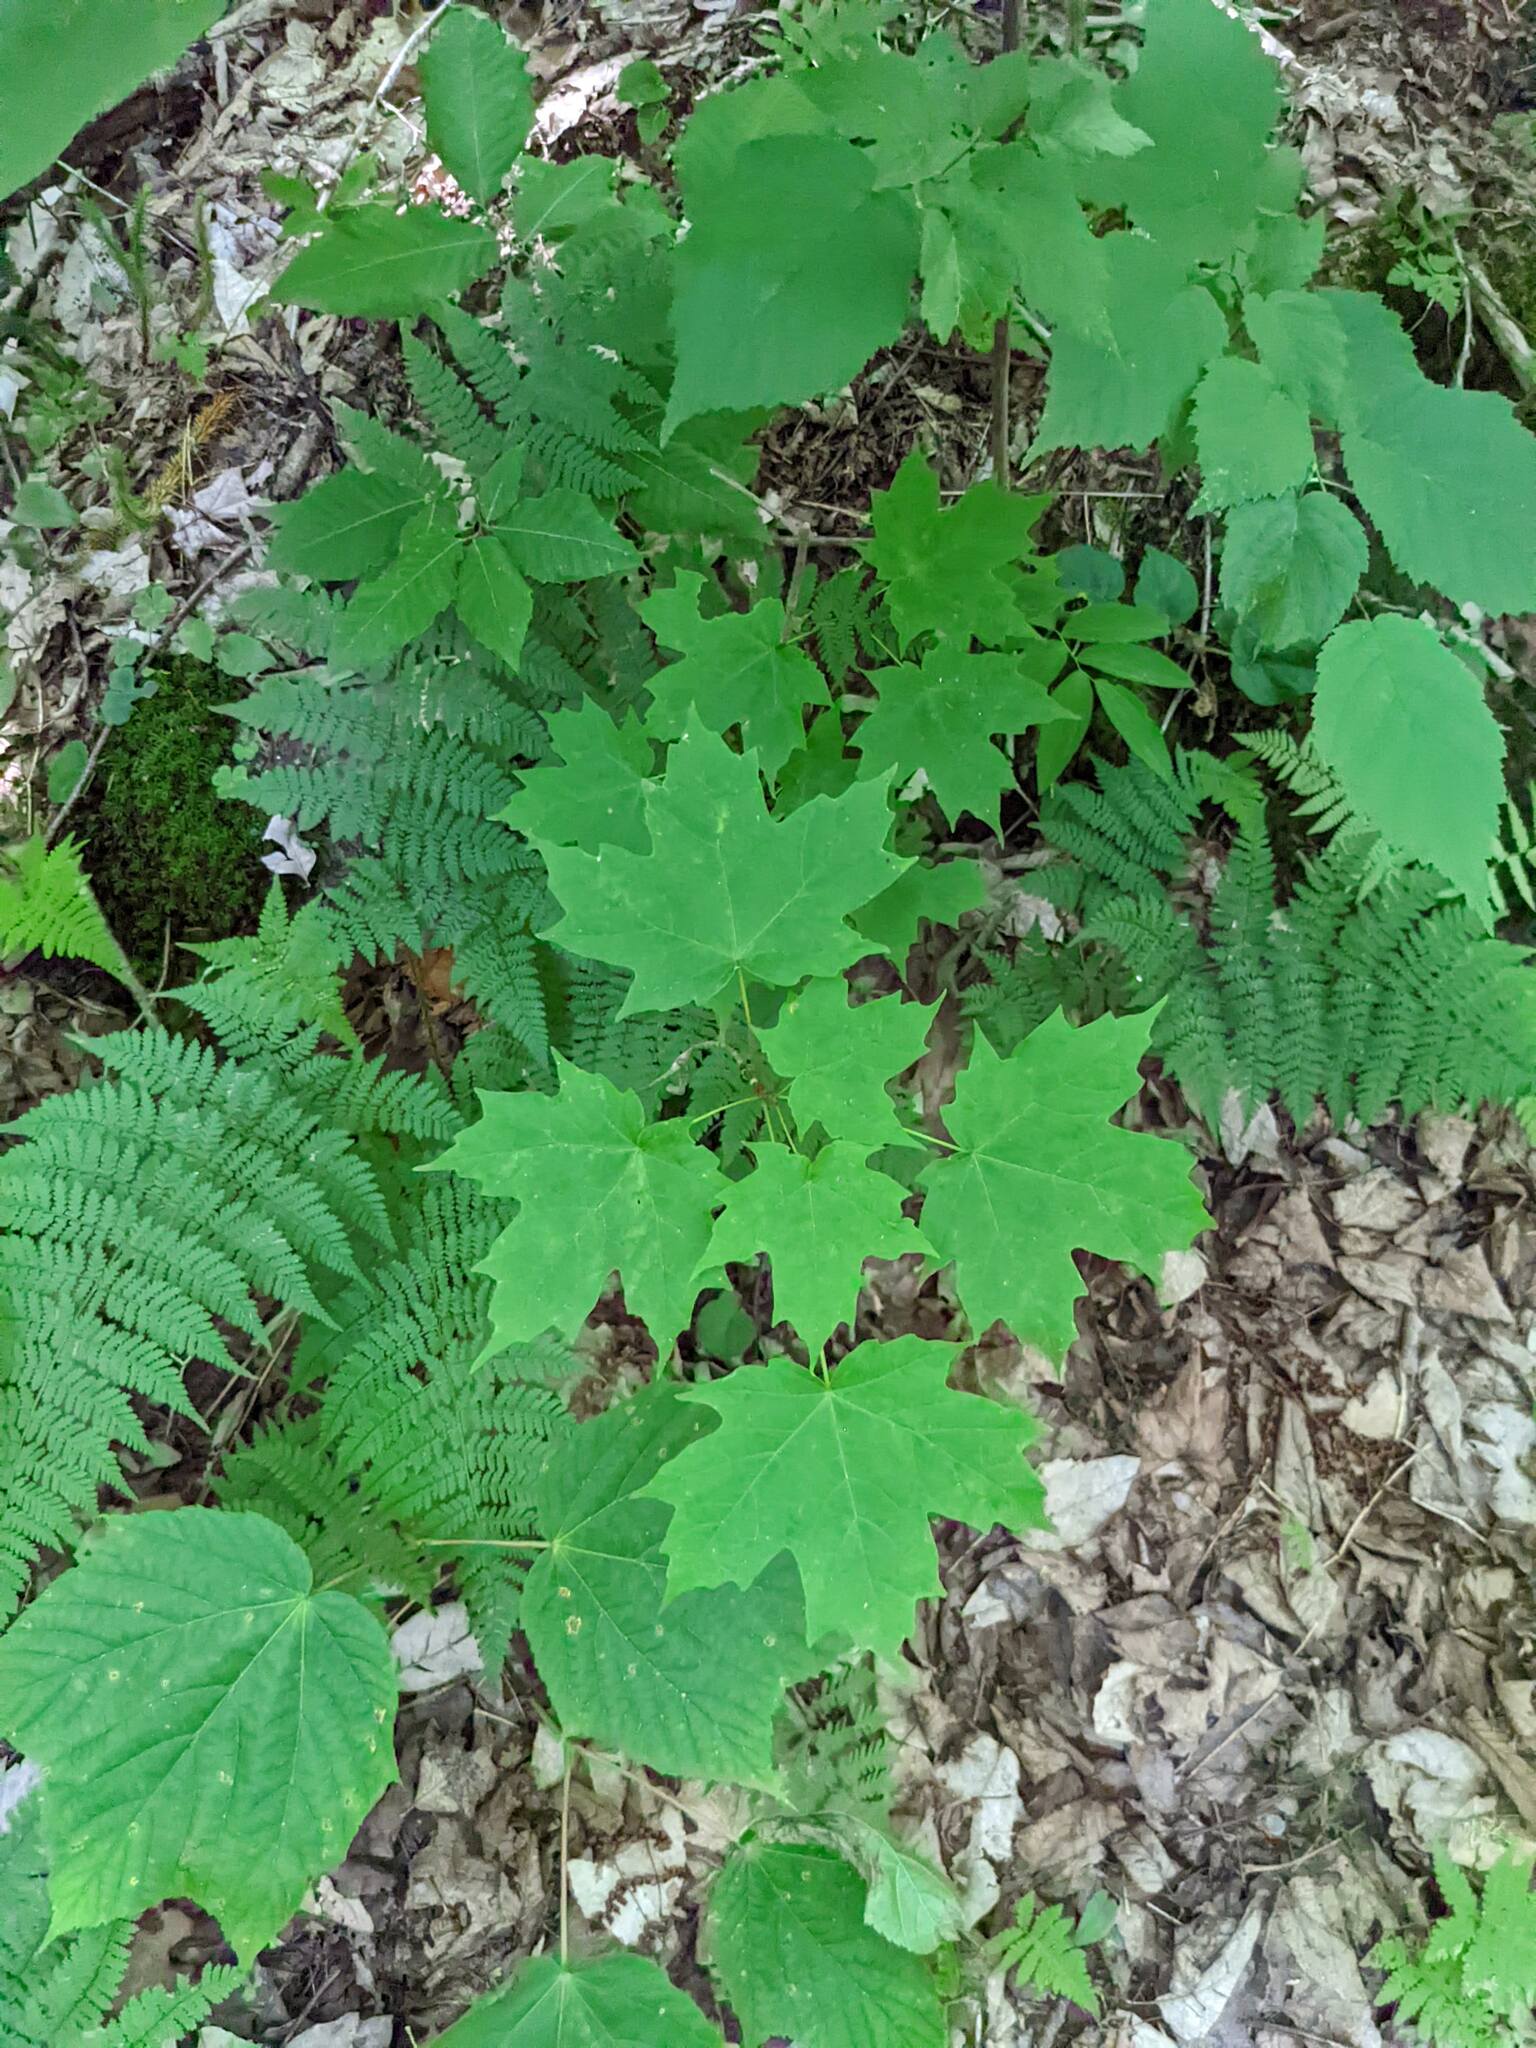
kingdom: Plantae
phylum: Tracheophyta
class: Magnoliopsida
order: Sapindales
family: Sapindaceae
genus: Acer
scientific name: Acer saccharum
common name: Sugar maple
